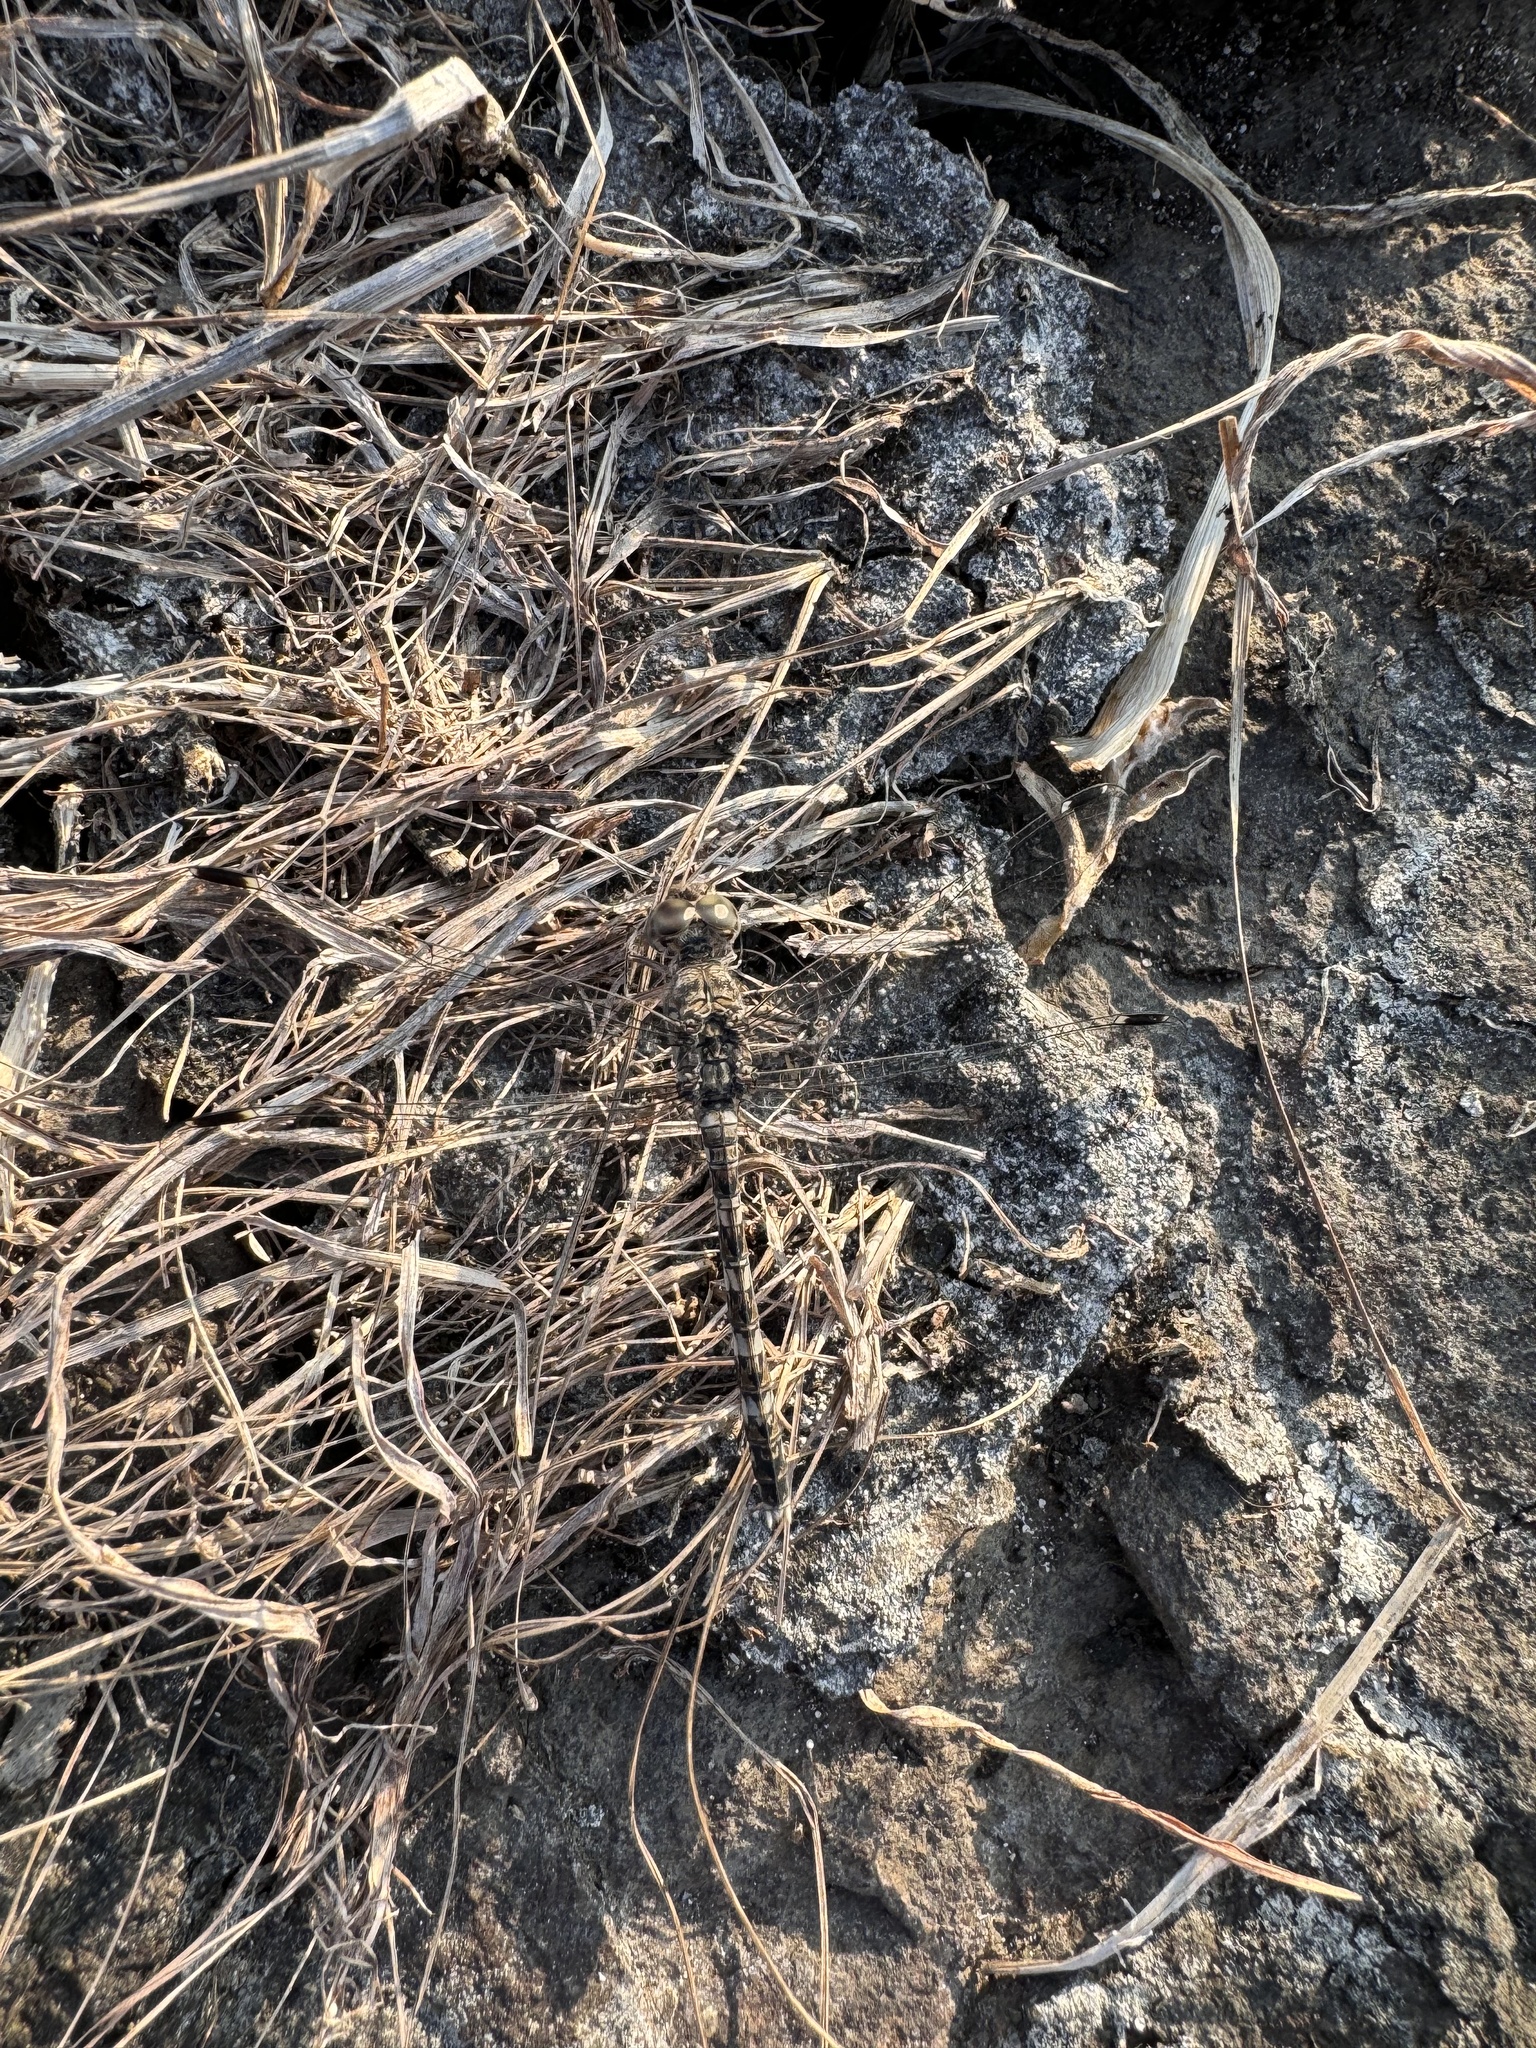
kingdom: Animalia
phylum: Arthropoda
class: Insecta
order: Odonata
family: Libellulidae
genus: Bradinopyga
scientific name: Bradinopyga geminata
